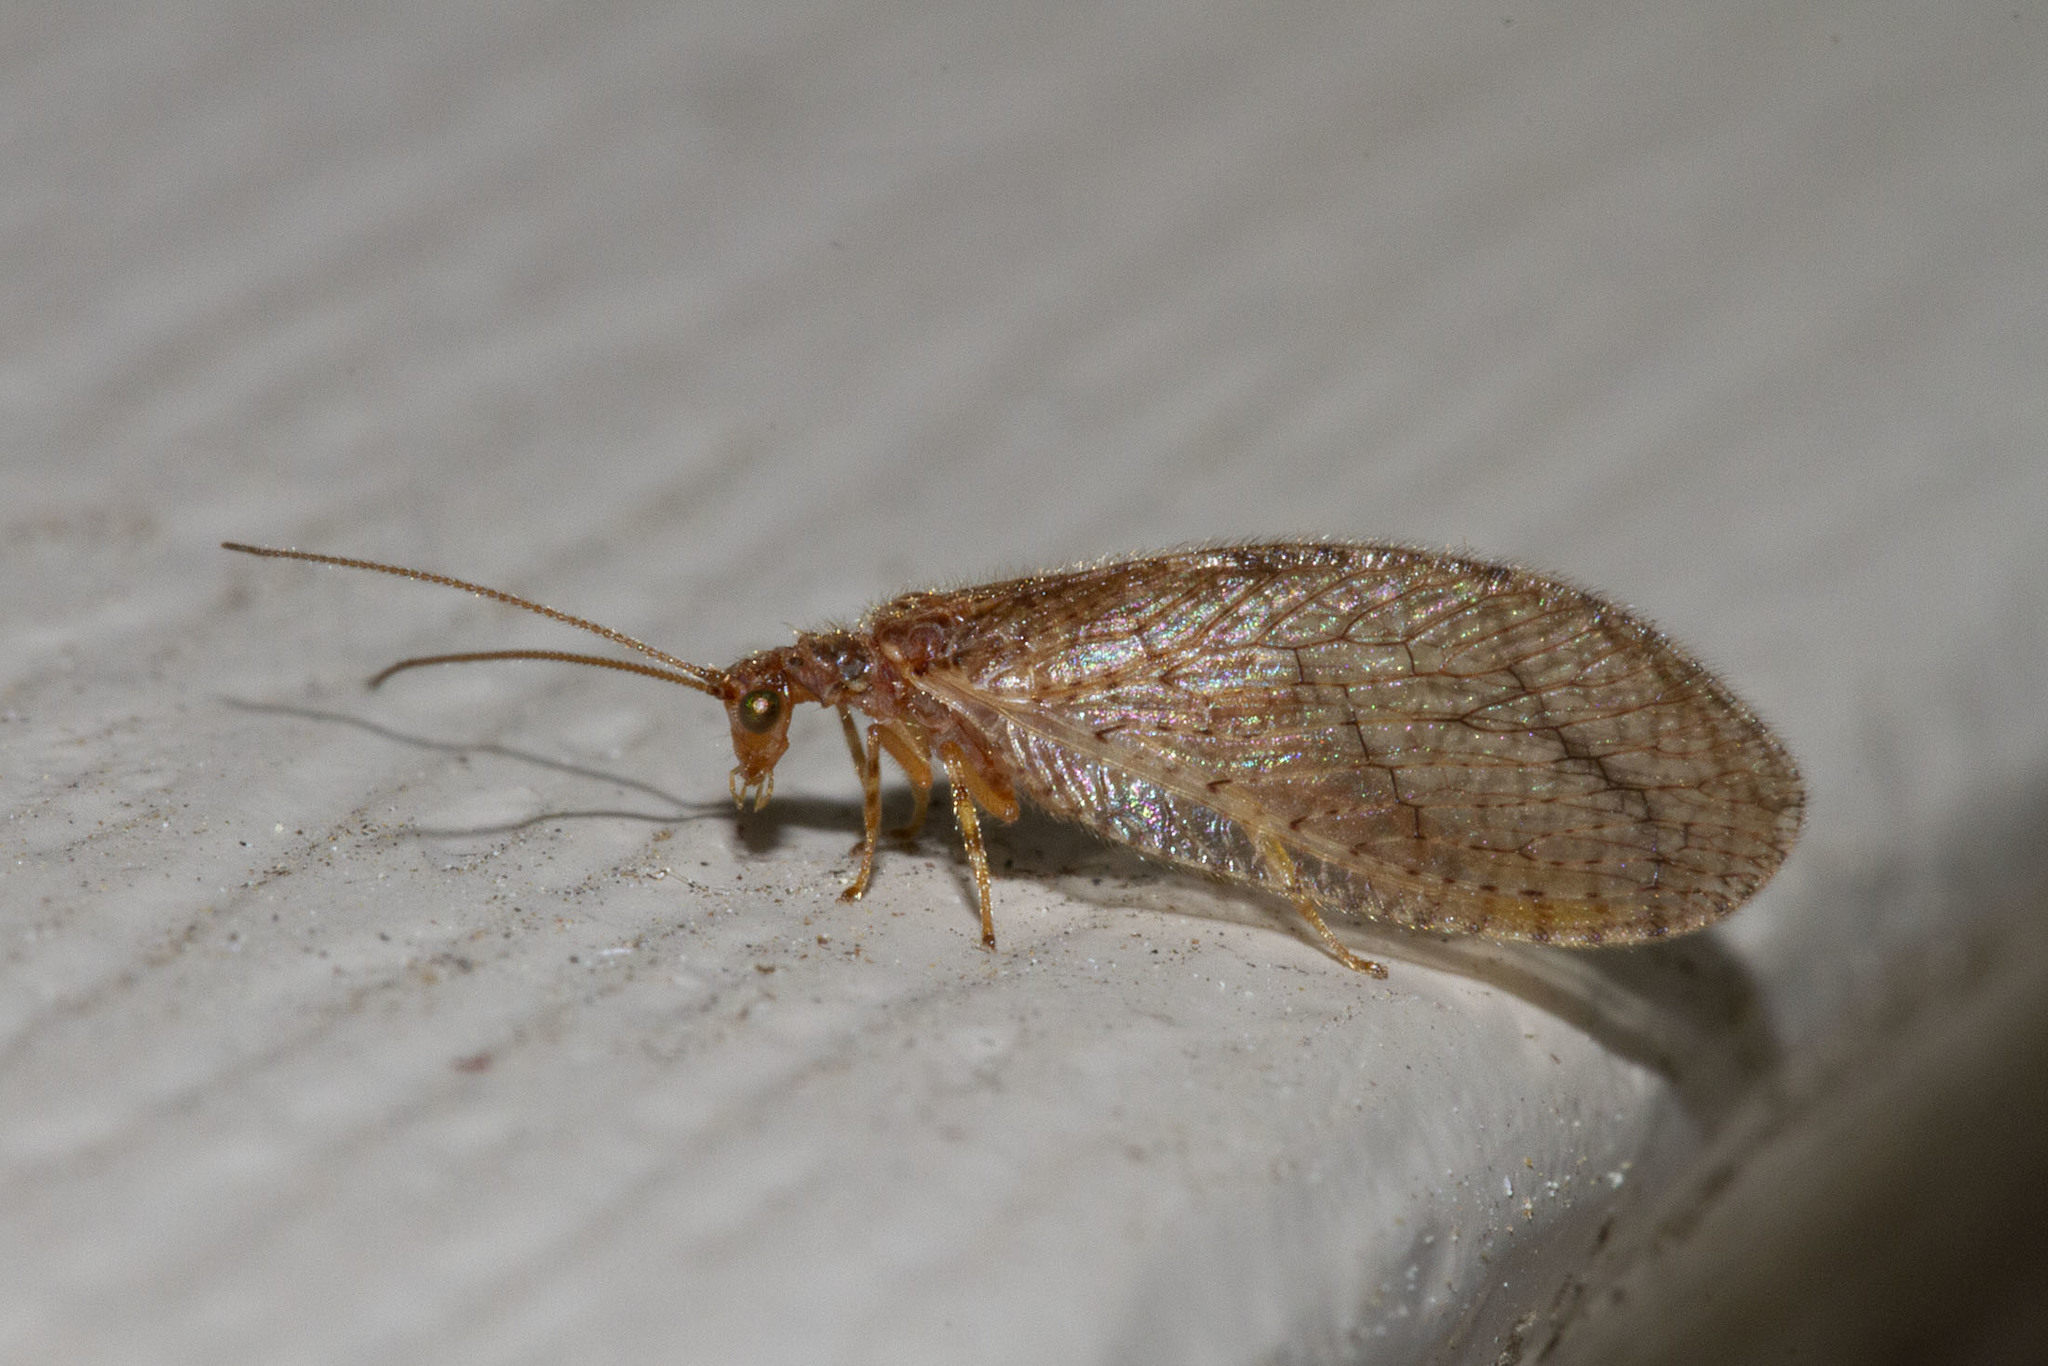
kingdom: Animalia
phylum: Arthropoda
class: Insecta
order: Neuroptera
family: Hemerobiidae
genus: Micromus
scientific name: Micromus posticus
